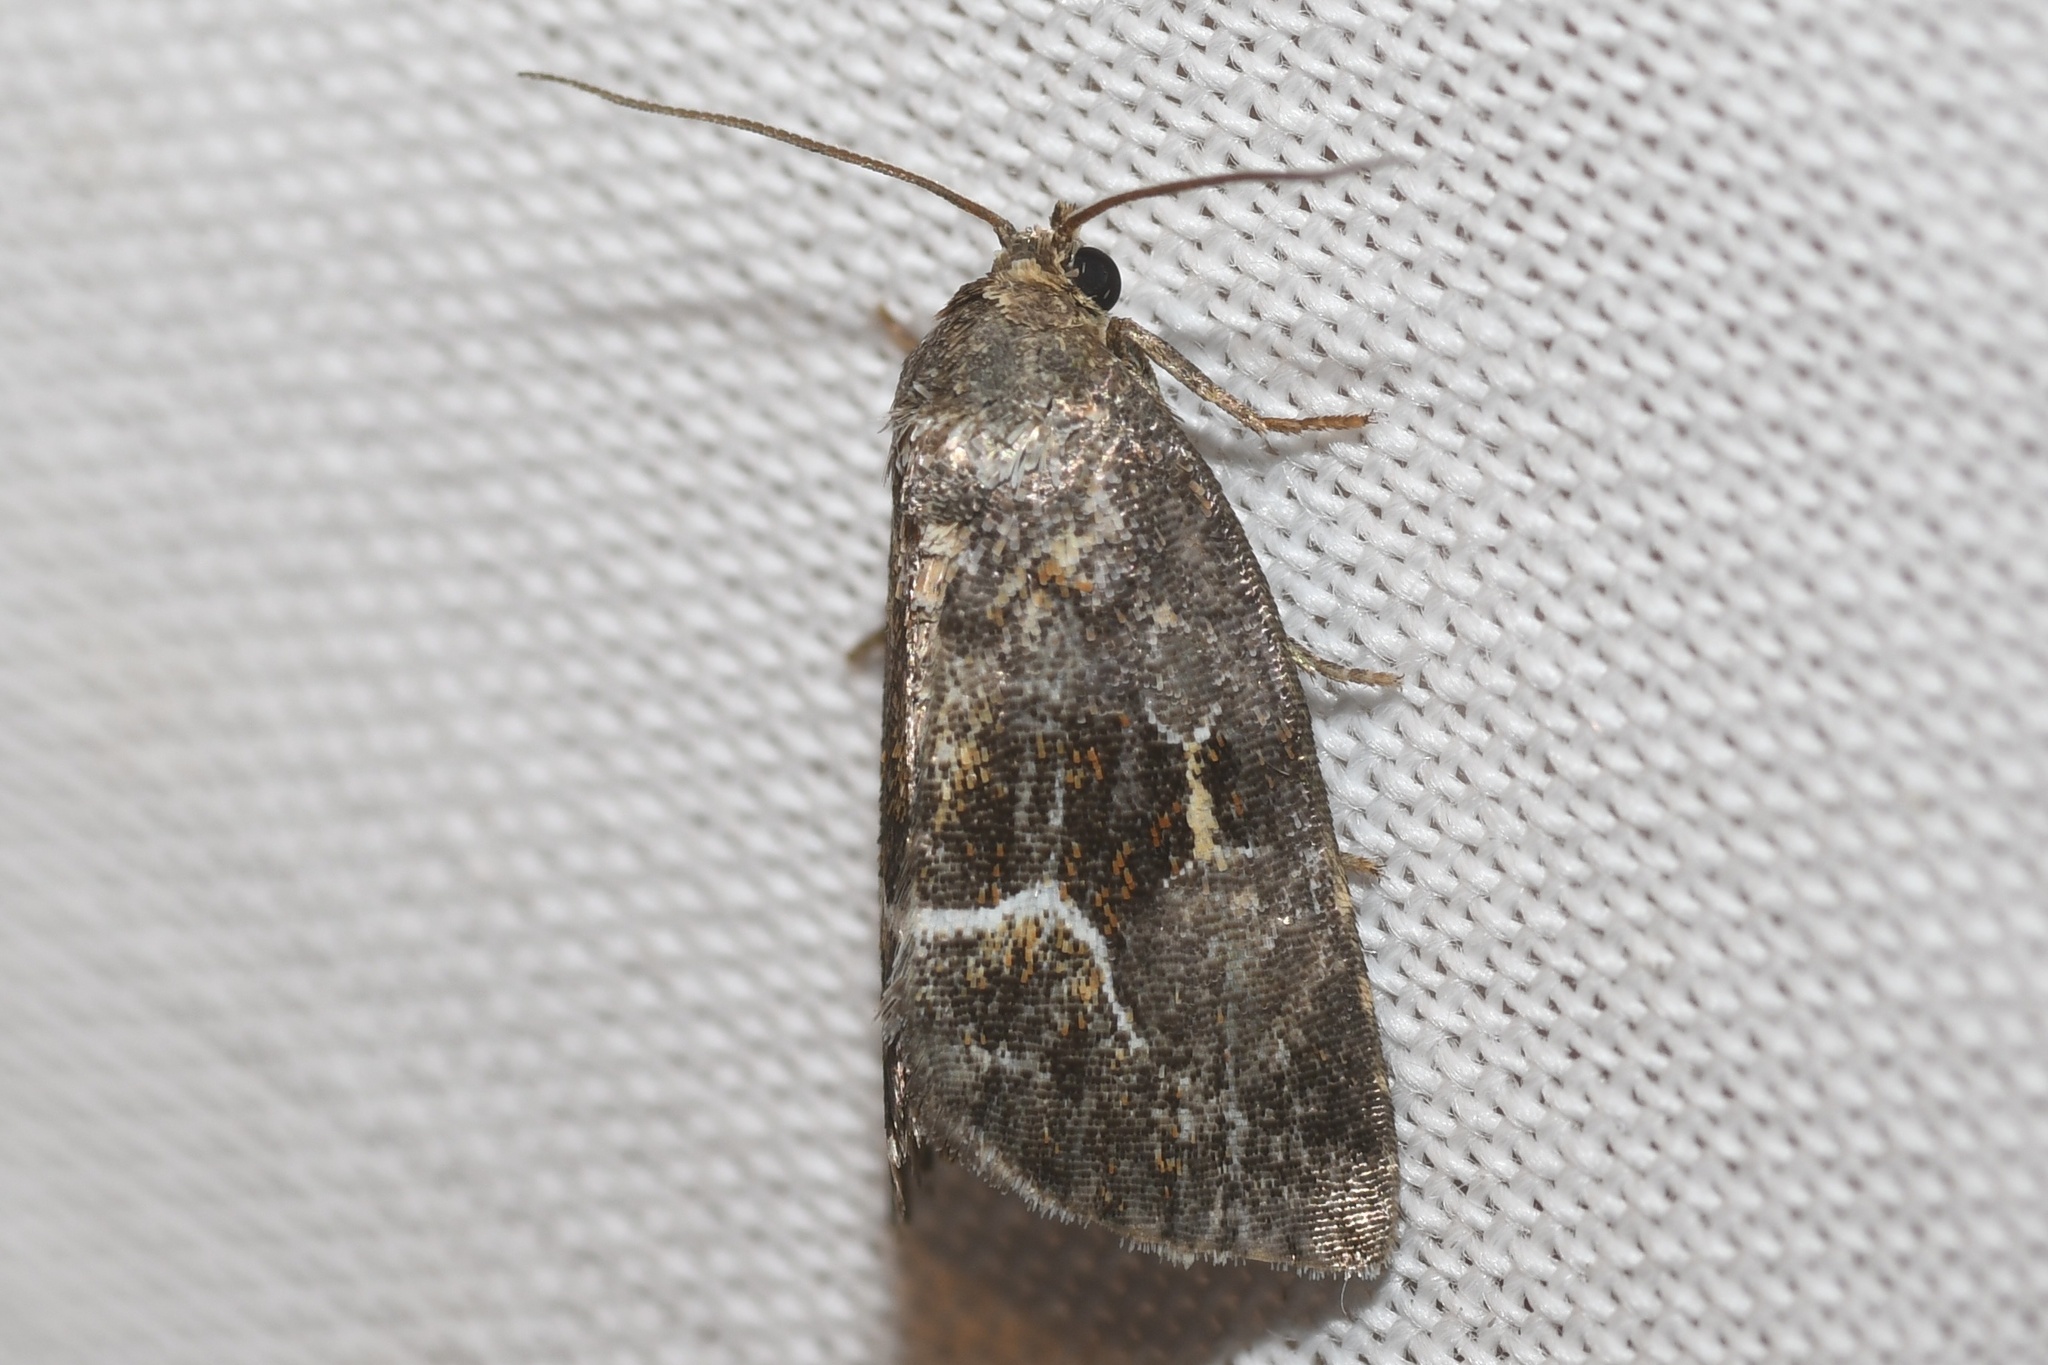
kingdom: Animalia
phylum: Arthropoda
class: Insecta
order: Lepidoptera
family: Noctuidae
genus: Deltote
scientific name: Deltote bellicula
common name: Bog glyph
